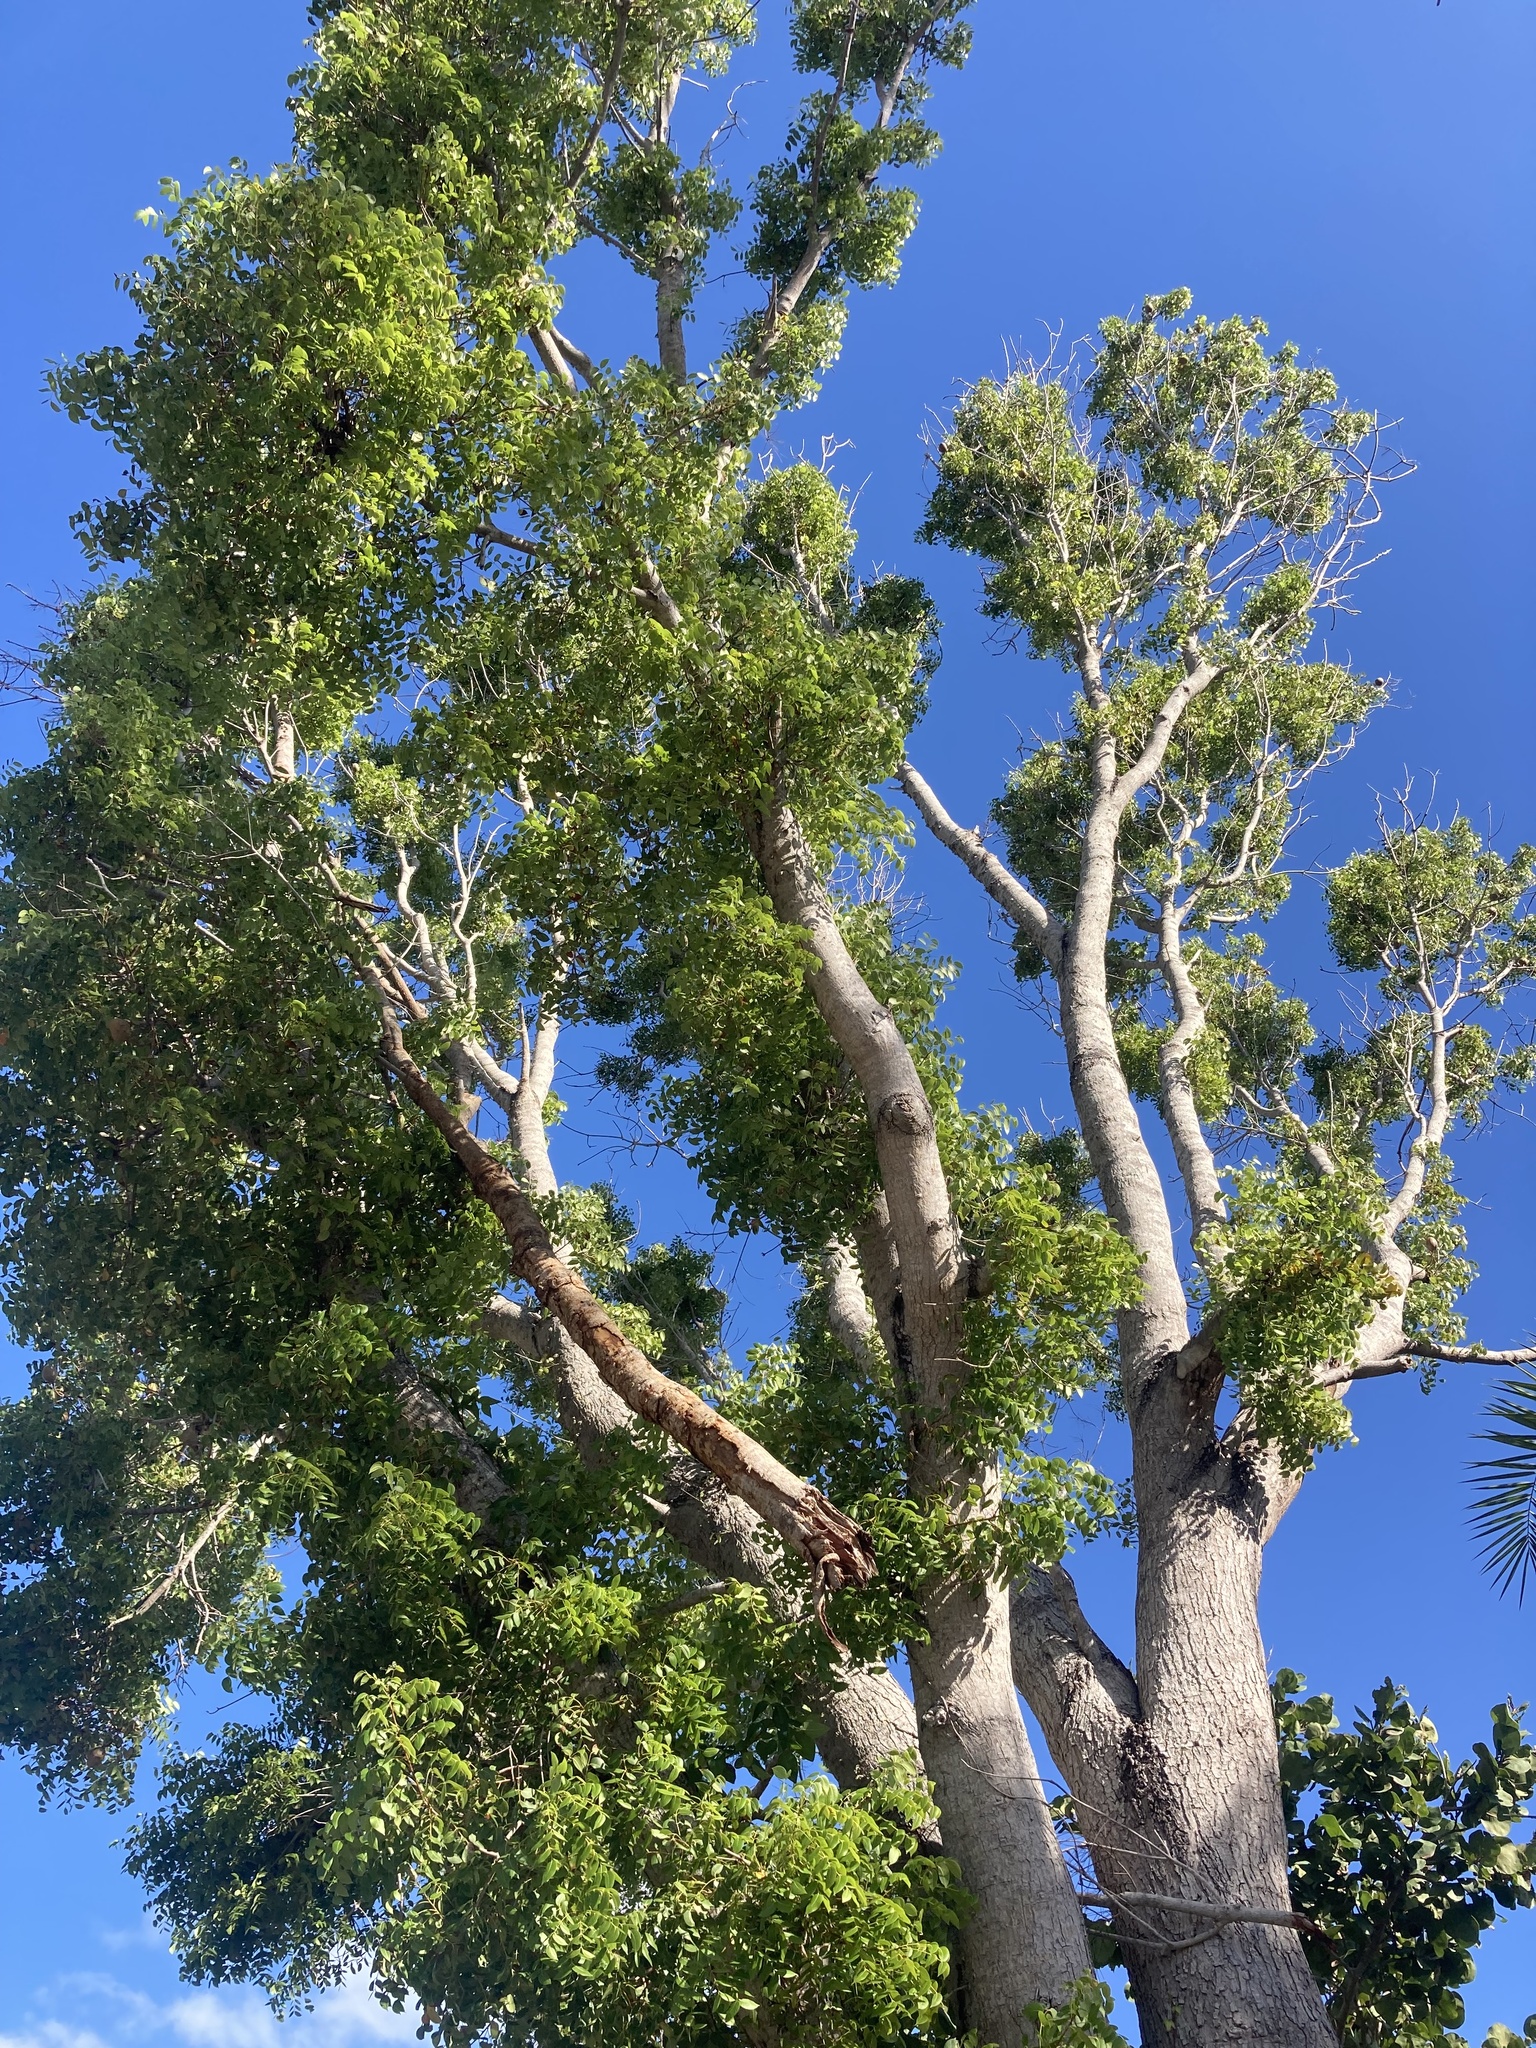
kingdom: Plantae
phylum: Tracheophyta
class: Magnoliopsida
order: Sapindales
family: Meliaceae
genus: Swietenia
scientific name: Swietenia mahagoni
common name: West indian mahogany
